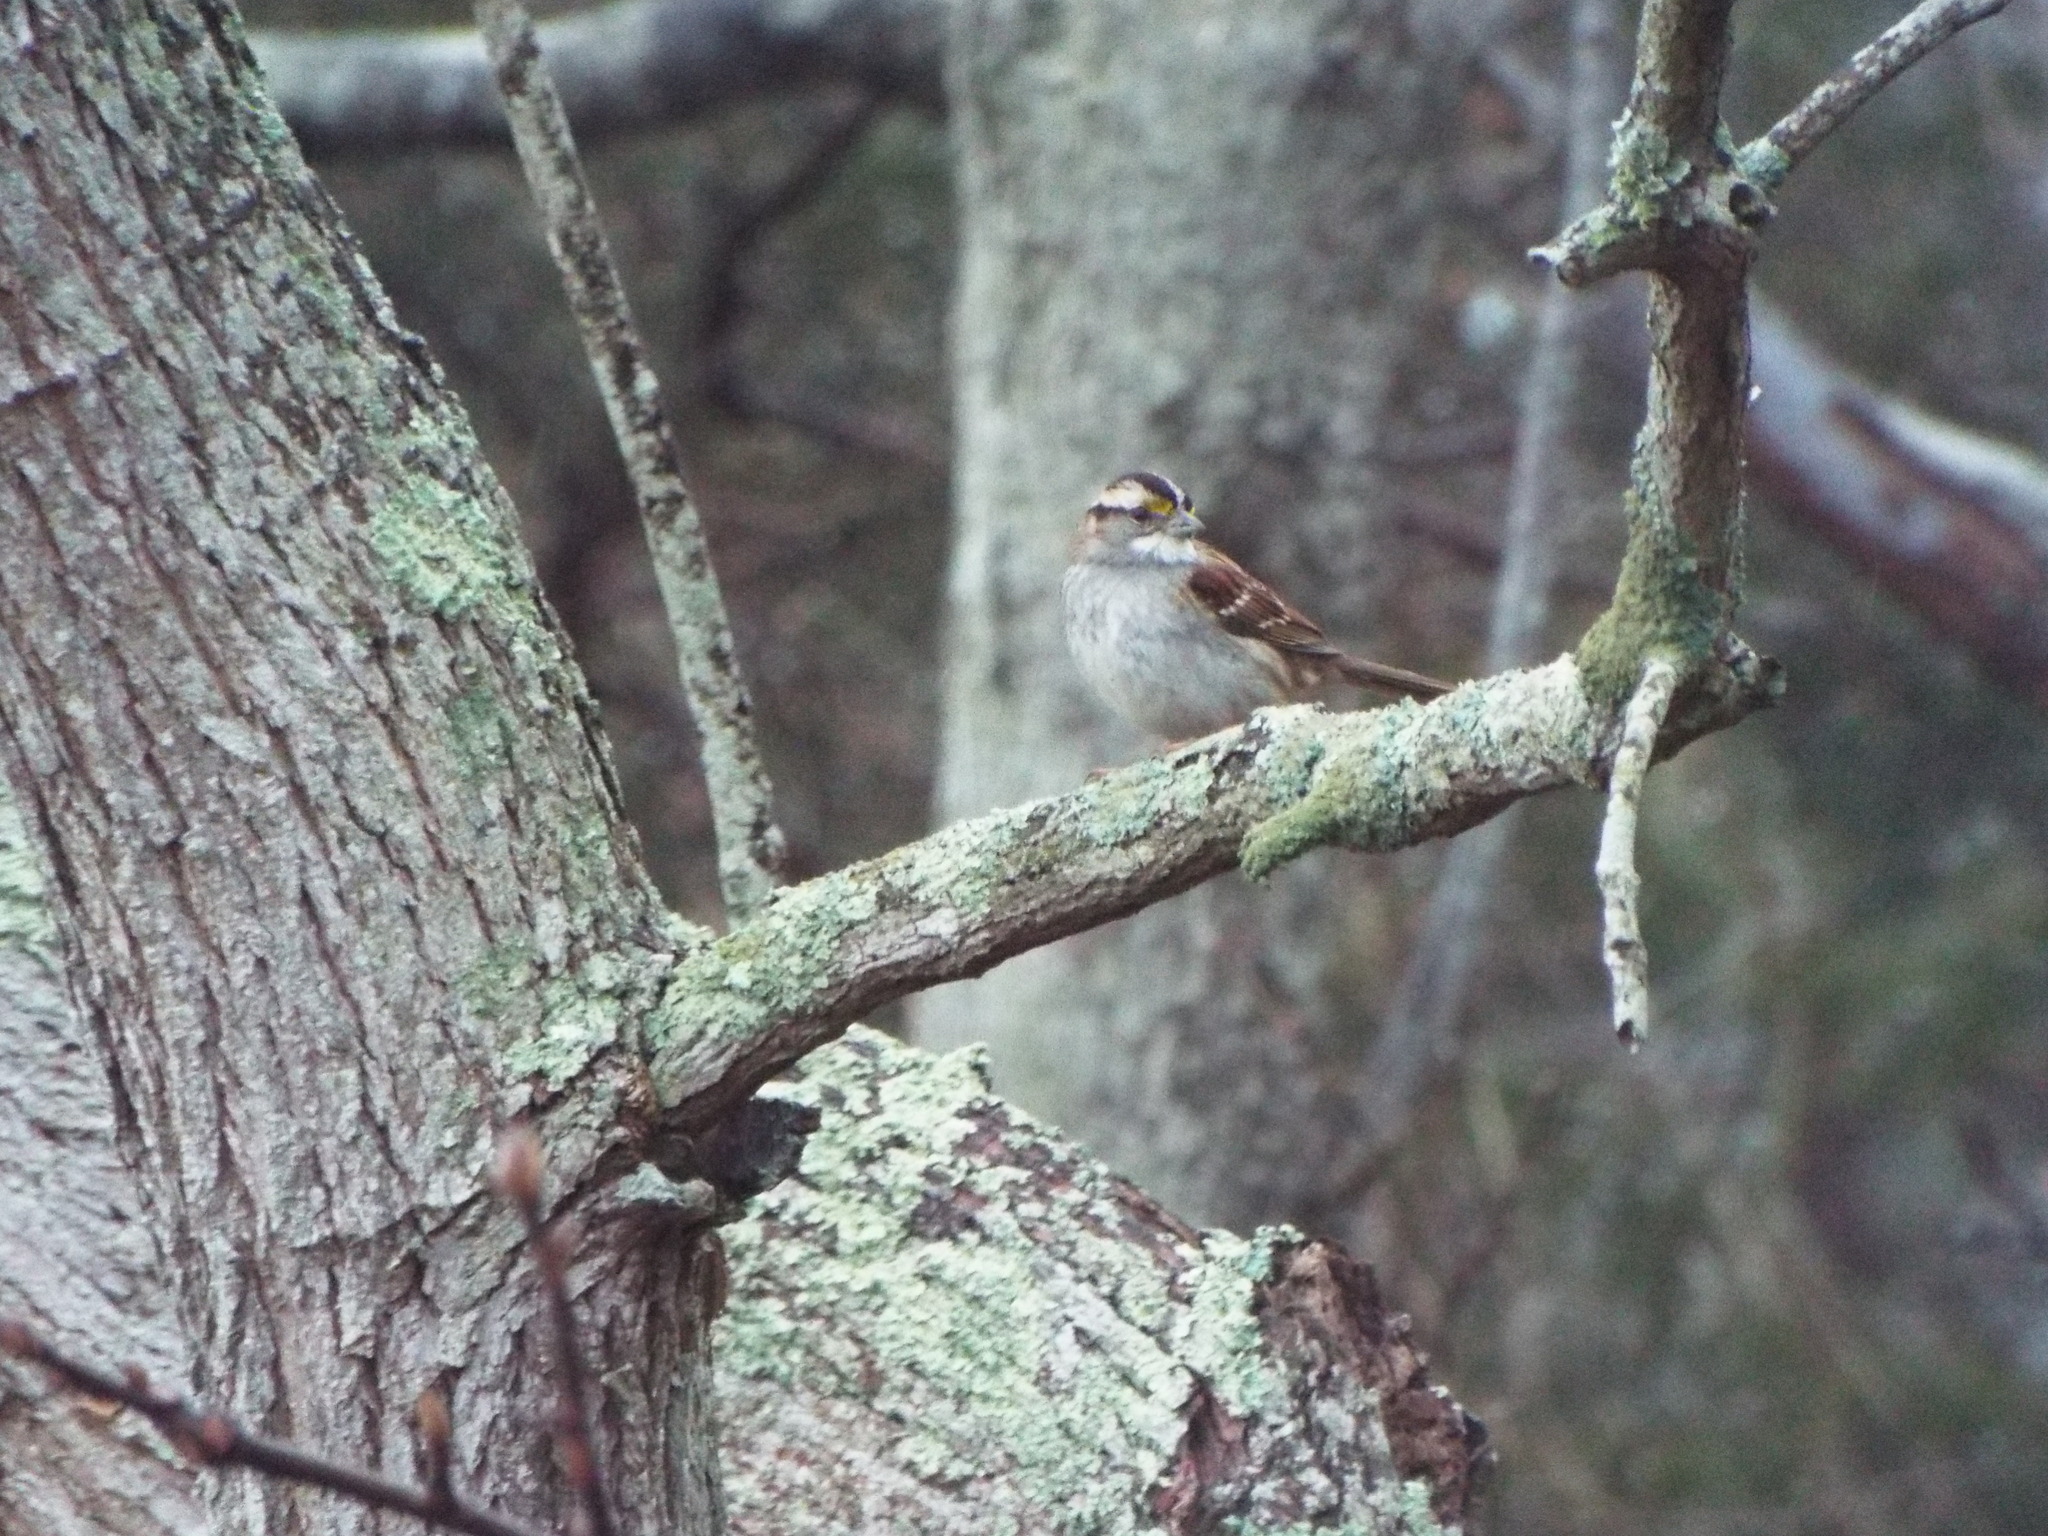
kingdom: Animalia
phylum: Chordata
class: Aves
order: Passeriformes
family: Passerellidae
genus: Zonotrichia
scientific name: Zonotrichia albicollis
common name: White-throated sparrow
